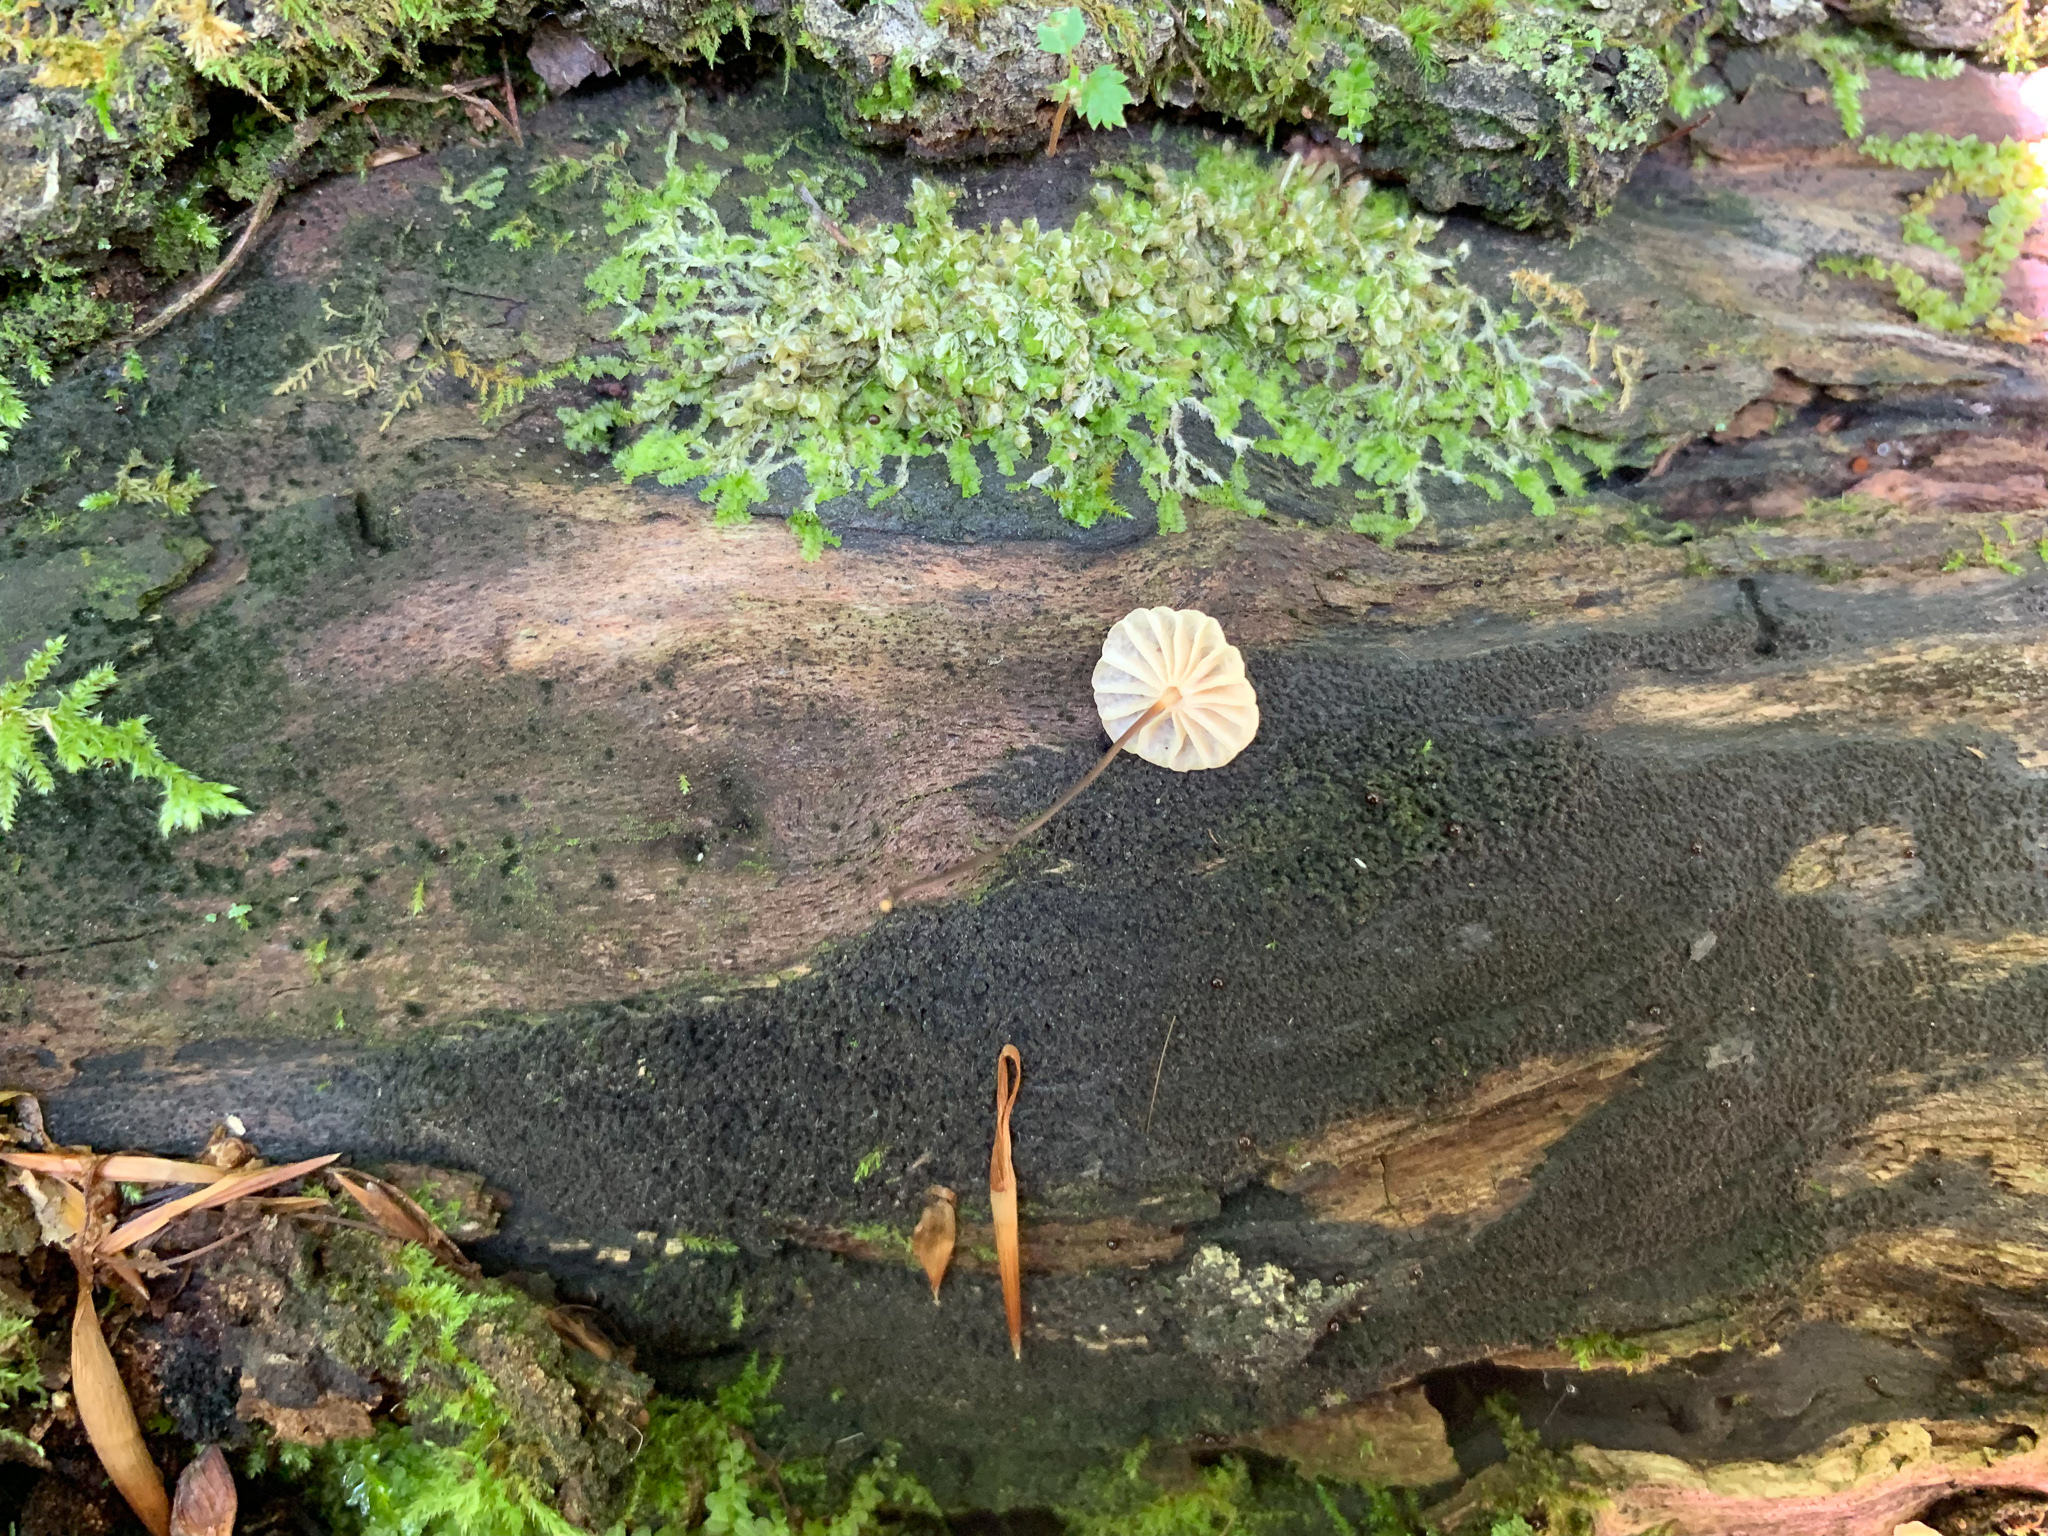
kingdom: Fungi
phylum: Basidiomycota
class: Agaricomycetes
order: Agaricales
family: Marasmiaceae
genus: Marasmius
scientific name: Marasmius rotula
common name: Collared parachute
